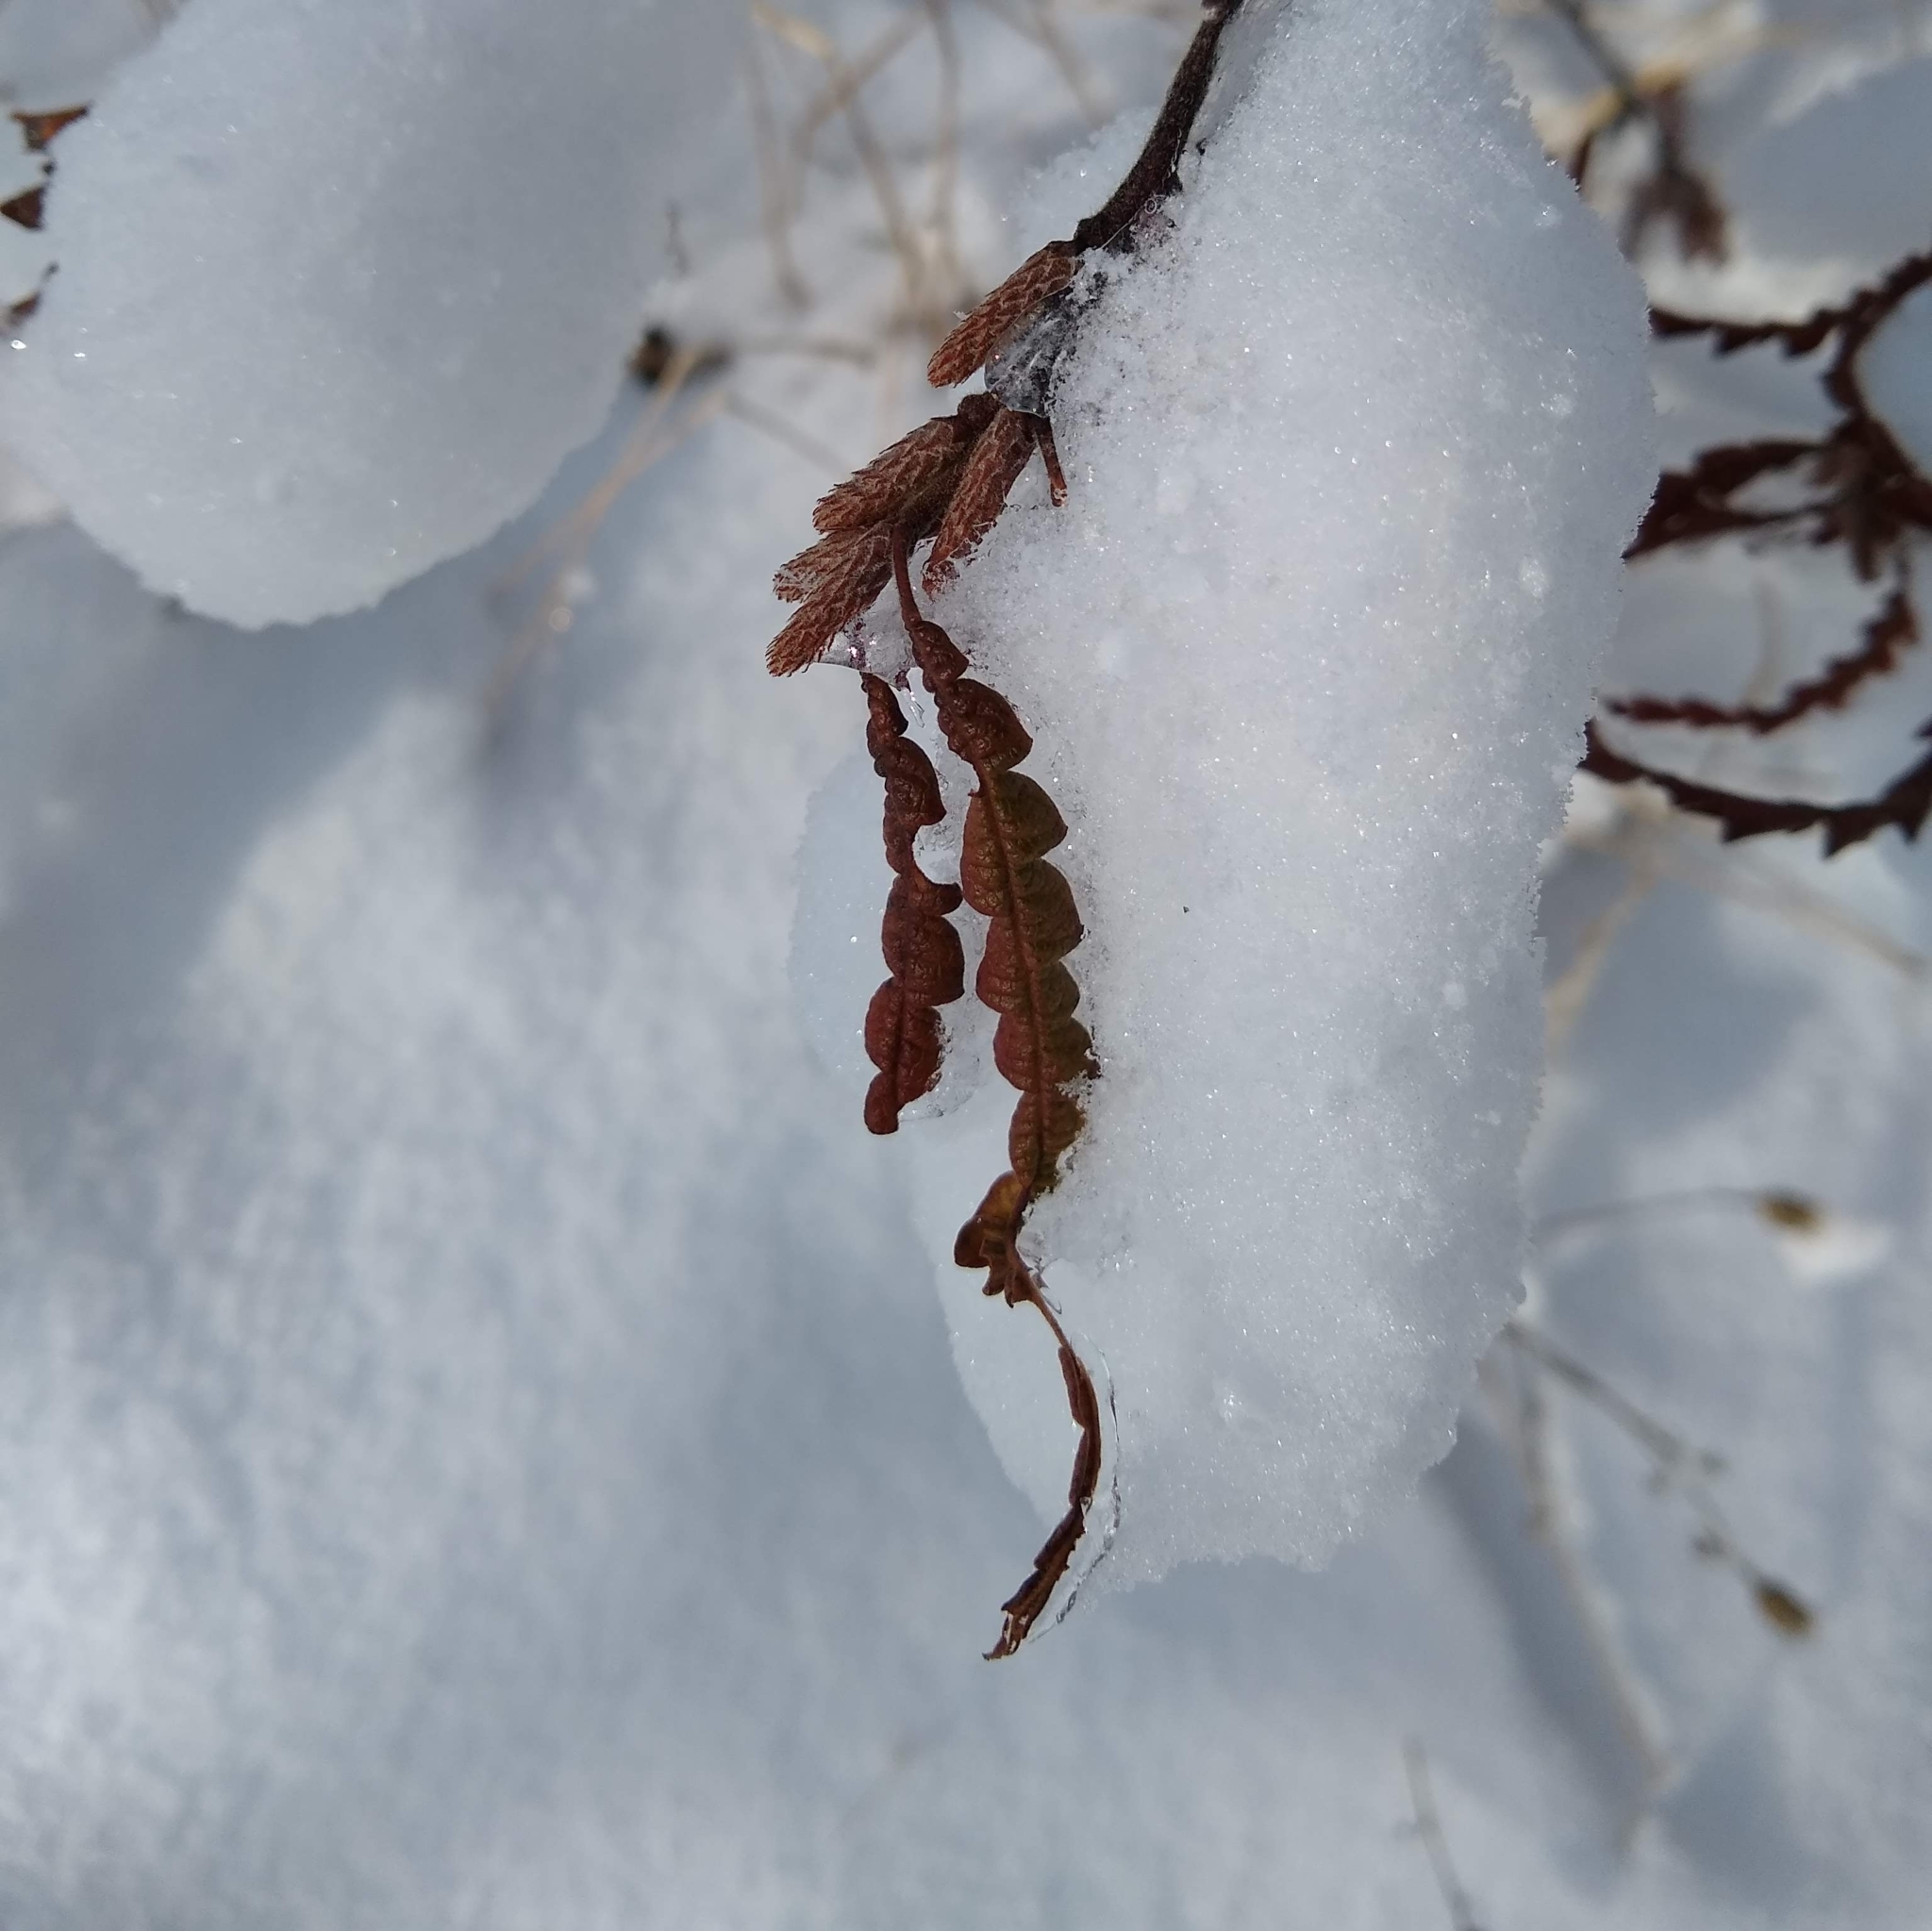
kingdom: Plantae
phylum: Tracheophyta
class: Magnoliopsida
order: Fagales
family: Myricaceae
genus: Comptonia
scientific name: Comptonia peregrina
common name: Sweet-fern
